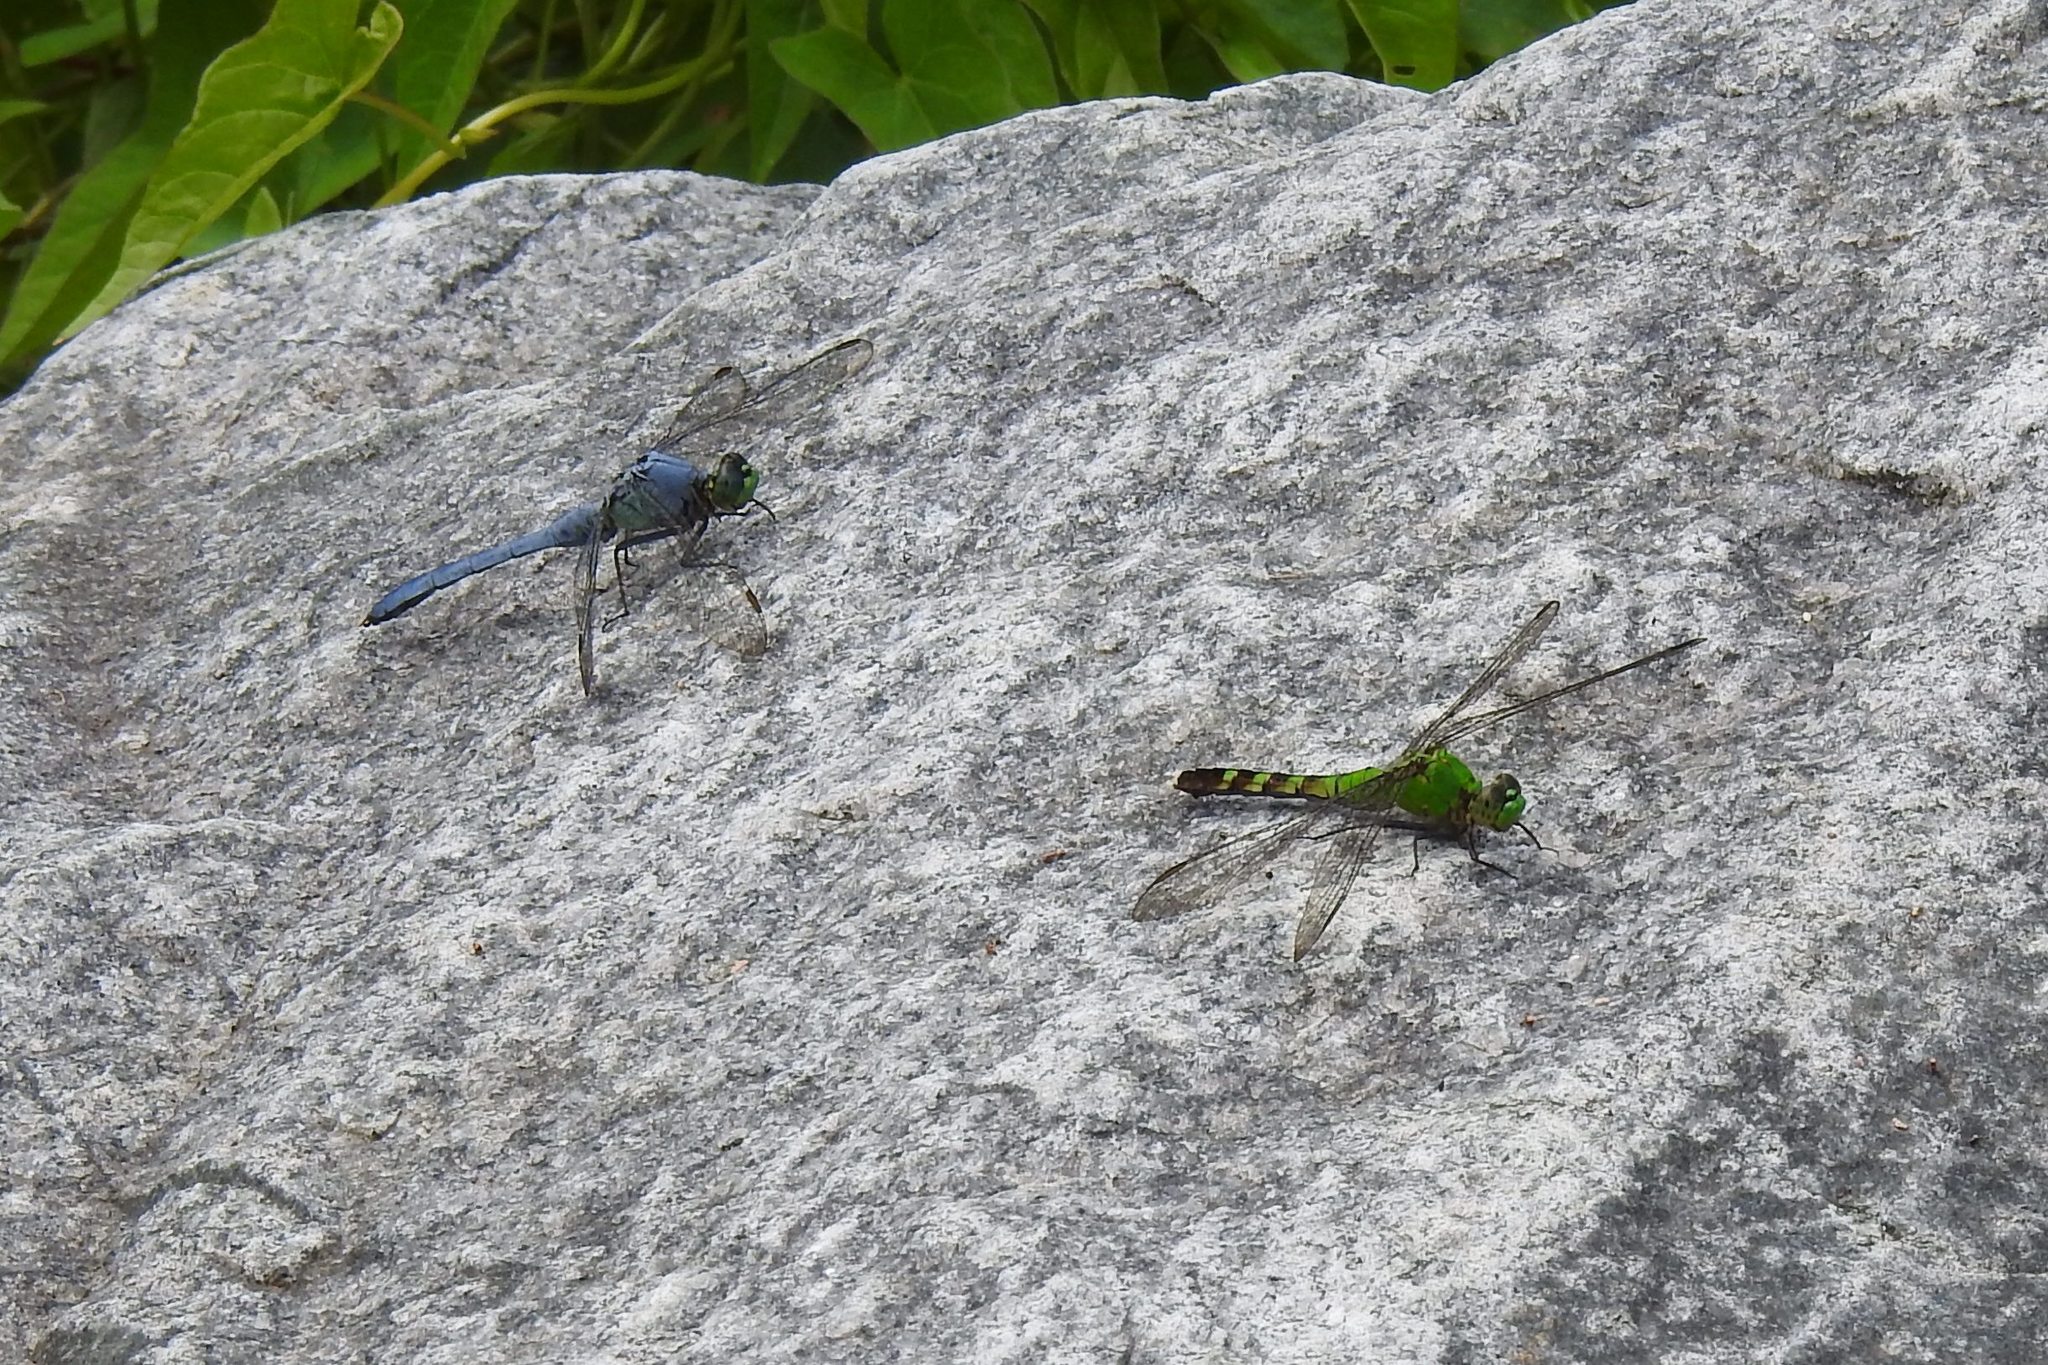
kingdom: Animalia
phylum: Arthropoda
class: Insecta
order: Odonata
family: Libellulidae
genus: Erythemis
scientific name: Erythemis simplicicollis
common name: Eastern pondhawk
